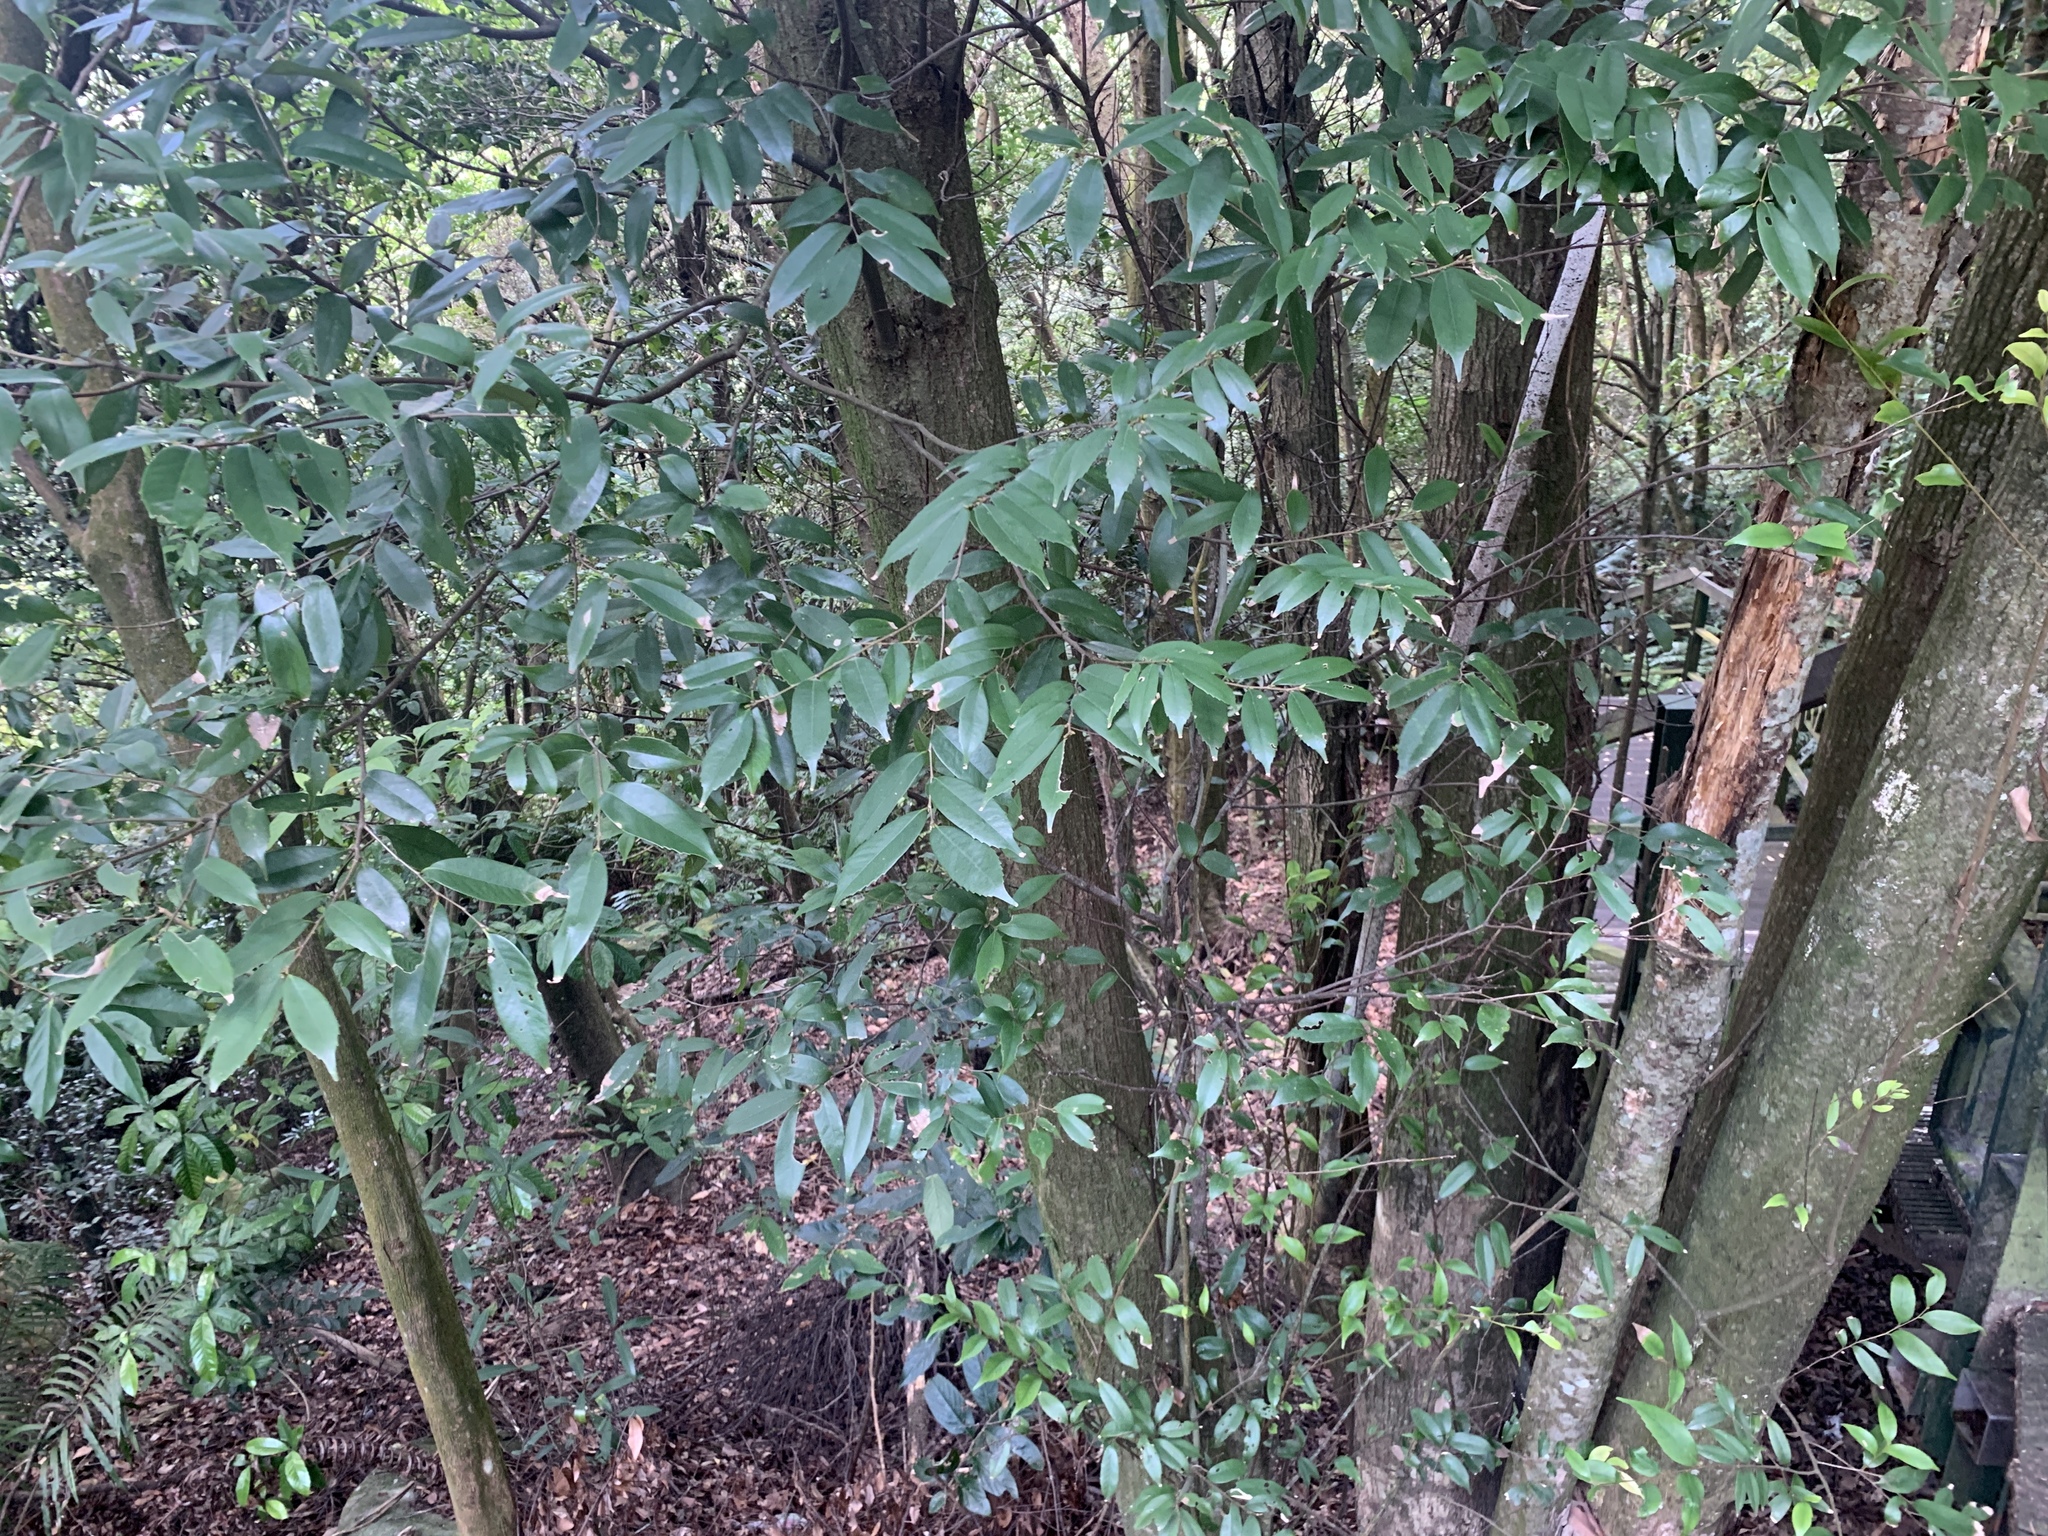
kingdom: Plantae
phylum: Tracheophyta
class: Magnoliopsida
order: Fagales
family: Fagaceae
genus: Lithocarpus
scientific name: Lithocarpus uraianus
